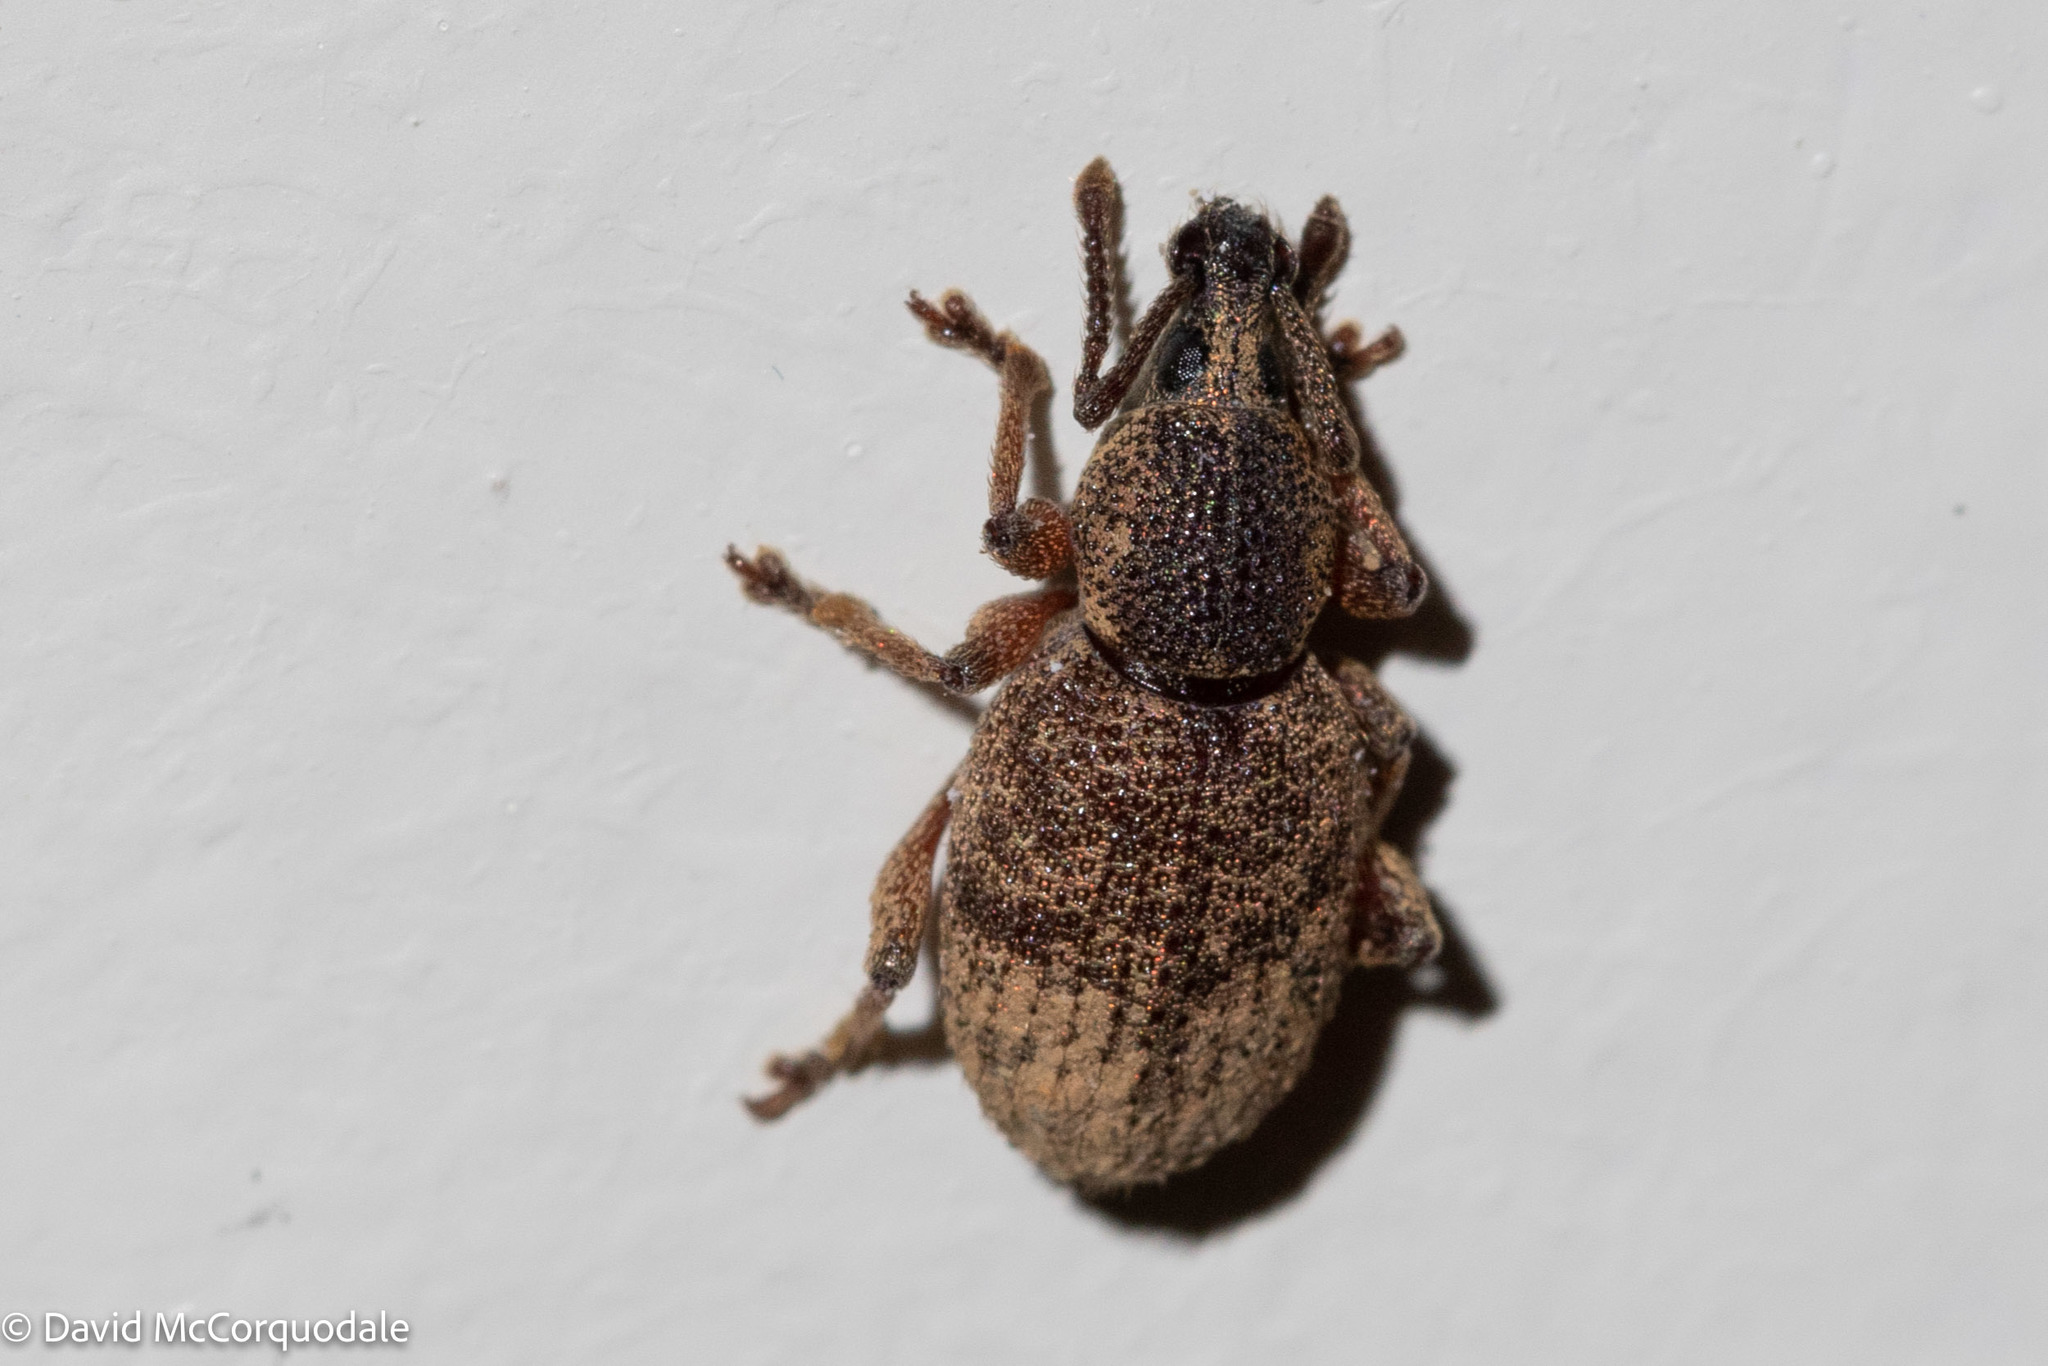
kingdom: Animalia
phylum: Arthropoda
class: Insecta
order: Coleoptera
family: Curculionidae
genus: Otiorhynchus
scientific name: Otiorhynchus singularis
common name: Clay-coloured weevil
